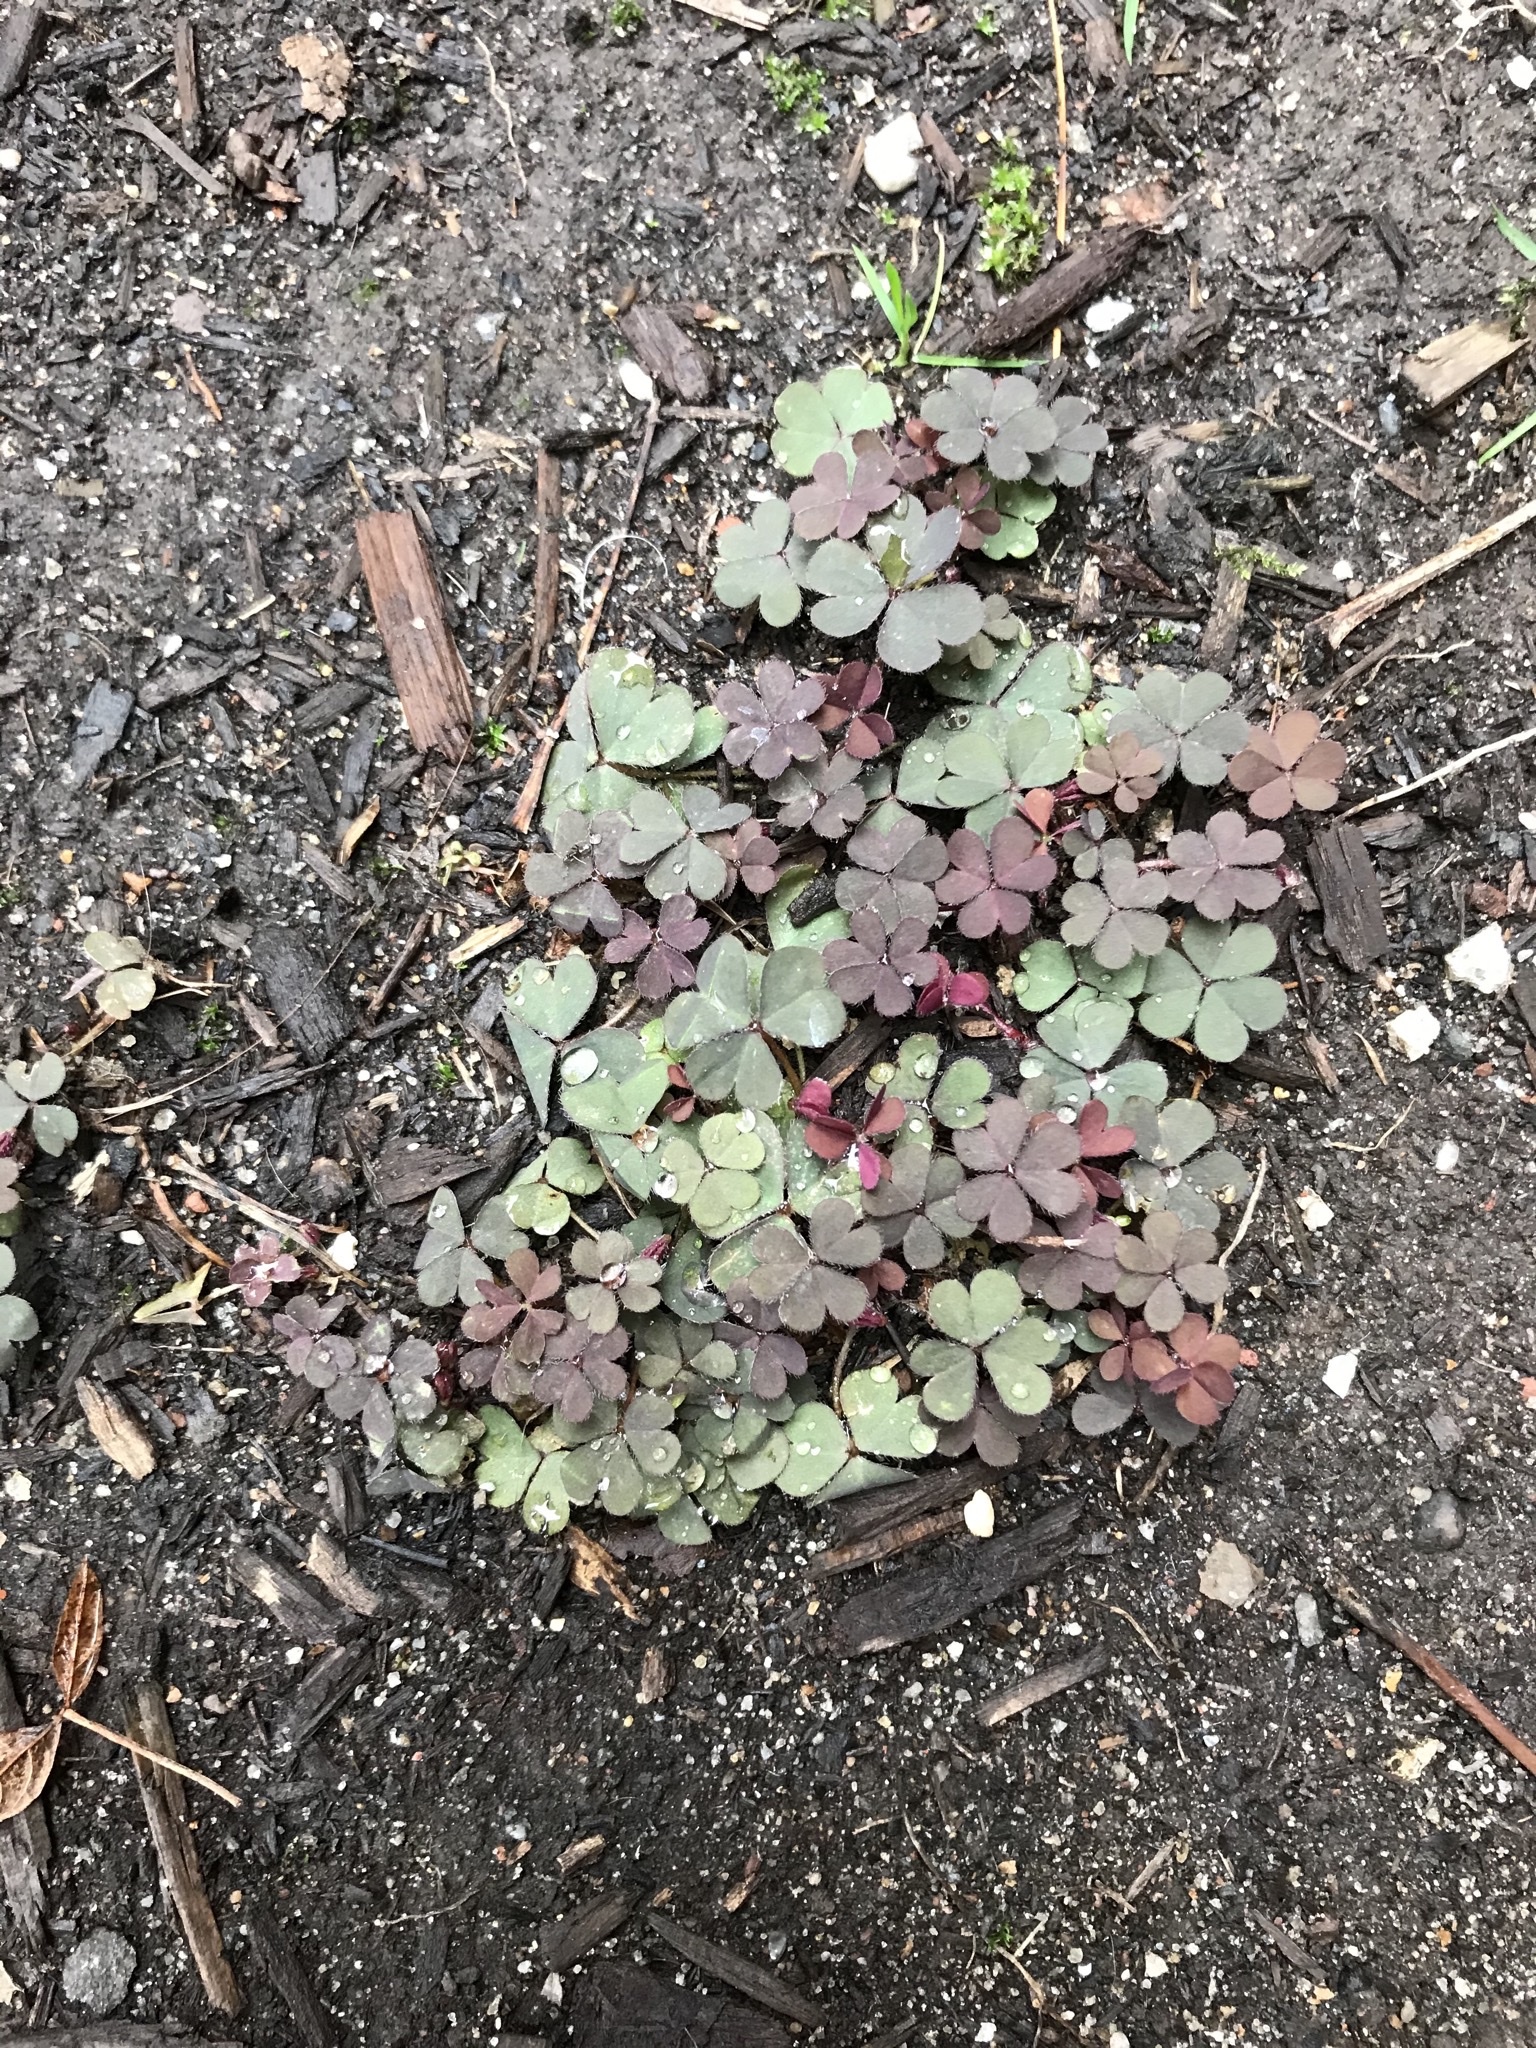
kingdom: Plantae
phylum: Tracheophyta
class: Magnoliopsida
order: Oxalidales
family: Oxalidaceae
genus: Oxalis
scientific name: Oxalis corniculata
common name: Procumbent yellow-sorrel
